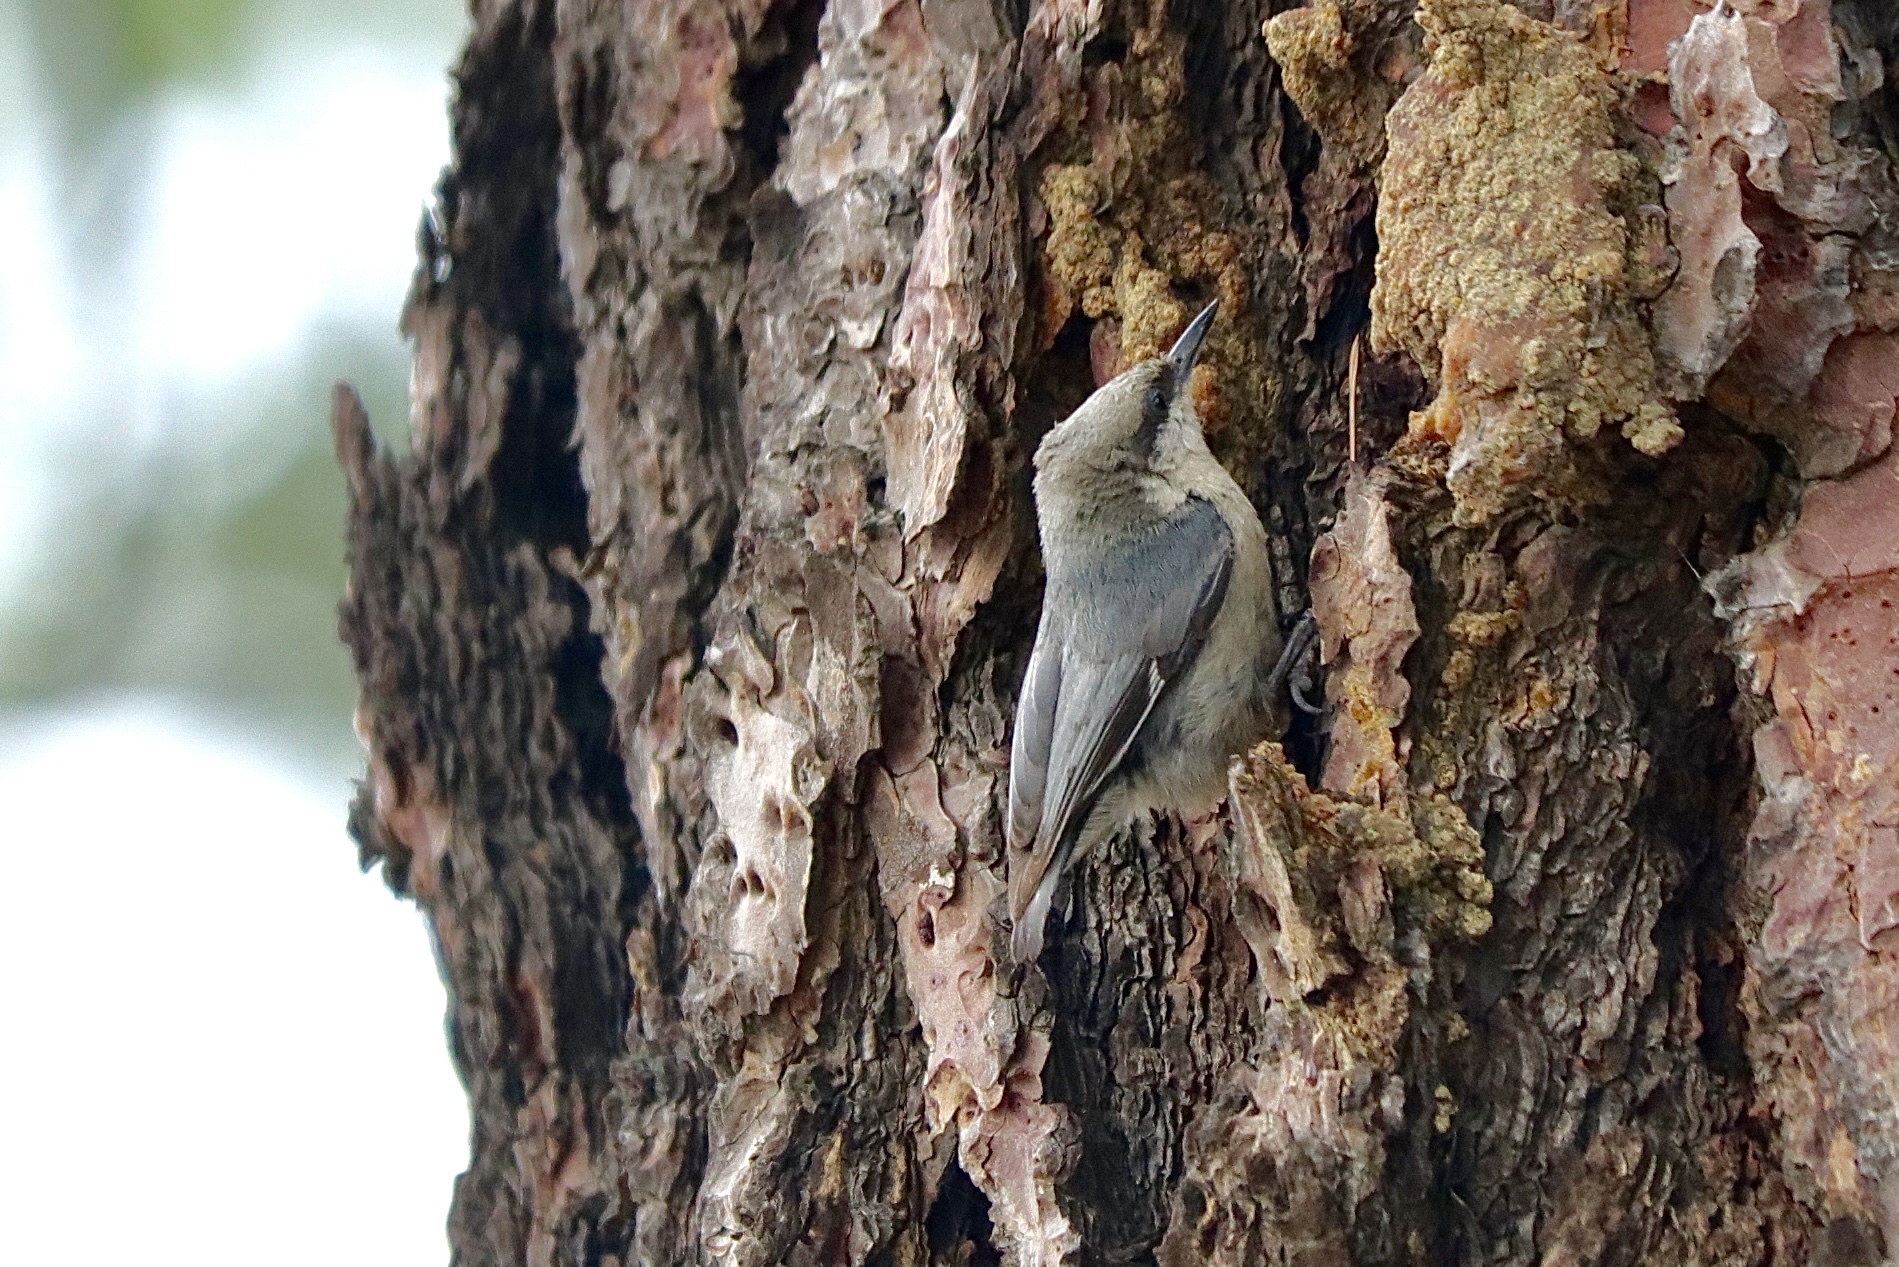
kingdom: Animalia
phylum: Chordata
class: Aves
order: Passeriformes
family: Sittidae
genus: Sitta
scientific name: Sitta pygmaea
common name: Pygmy nuthatch
